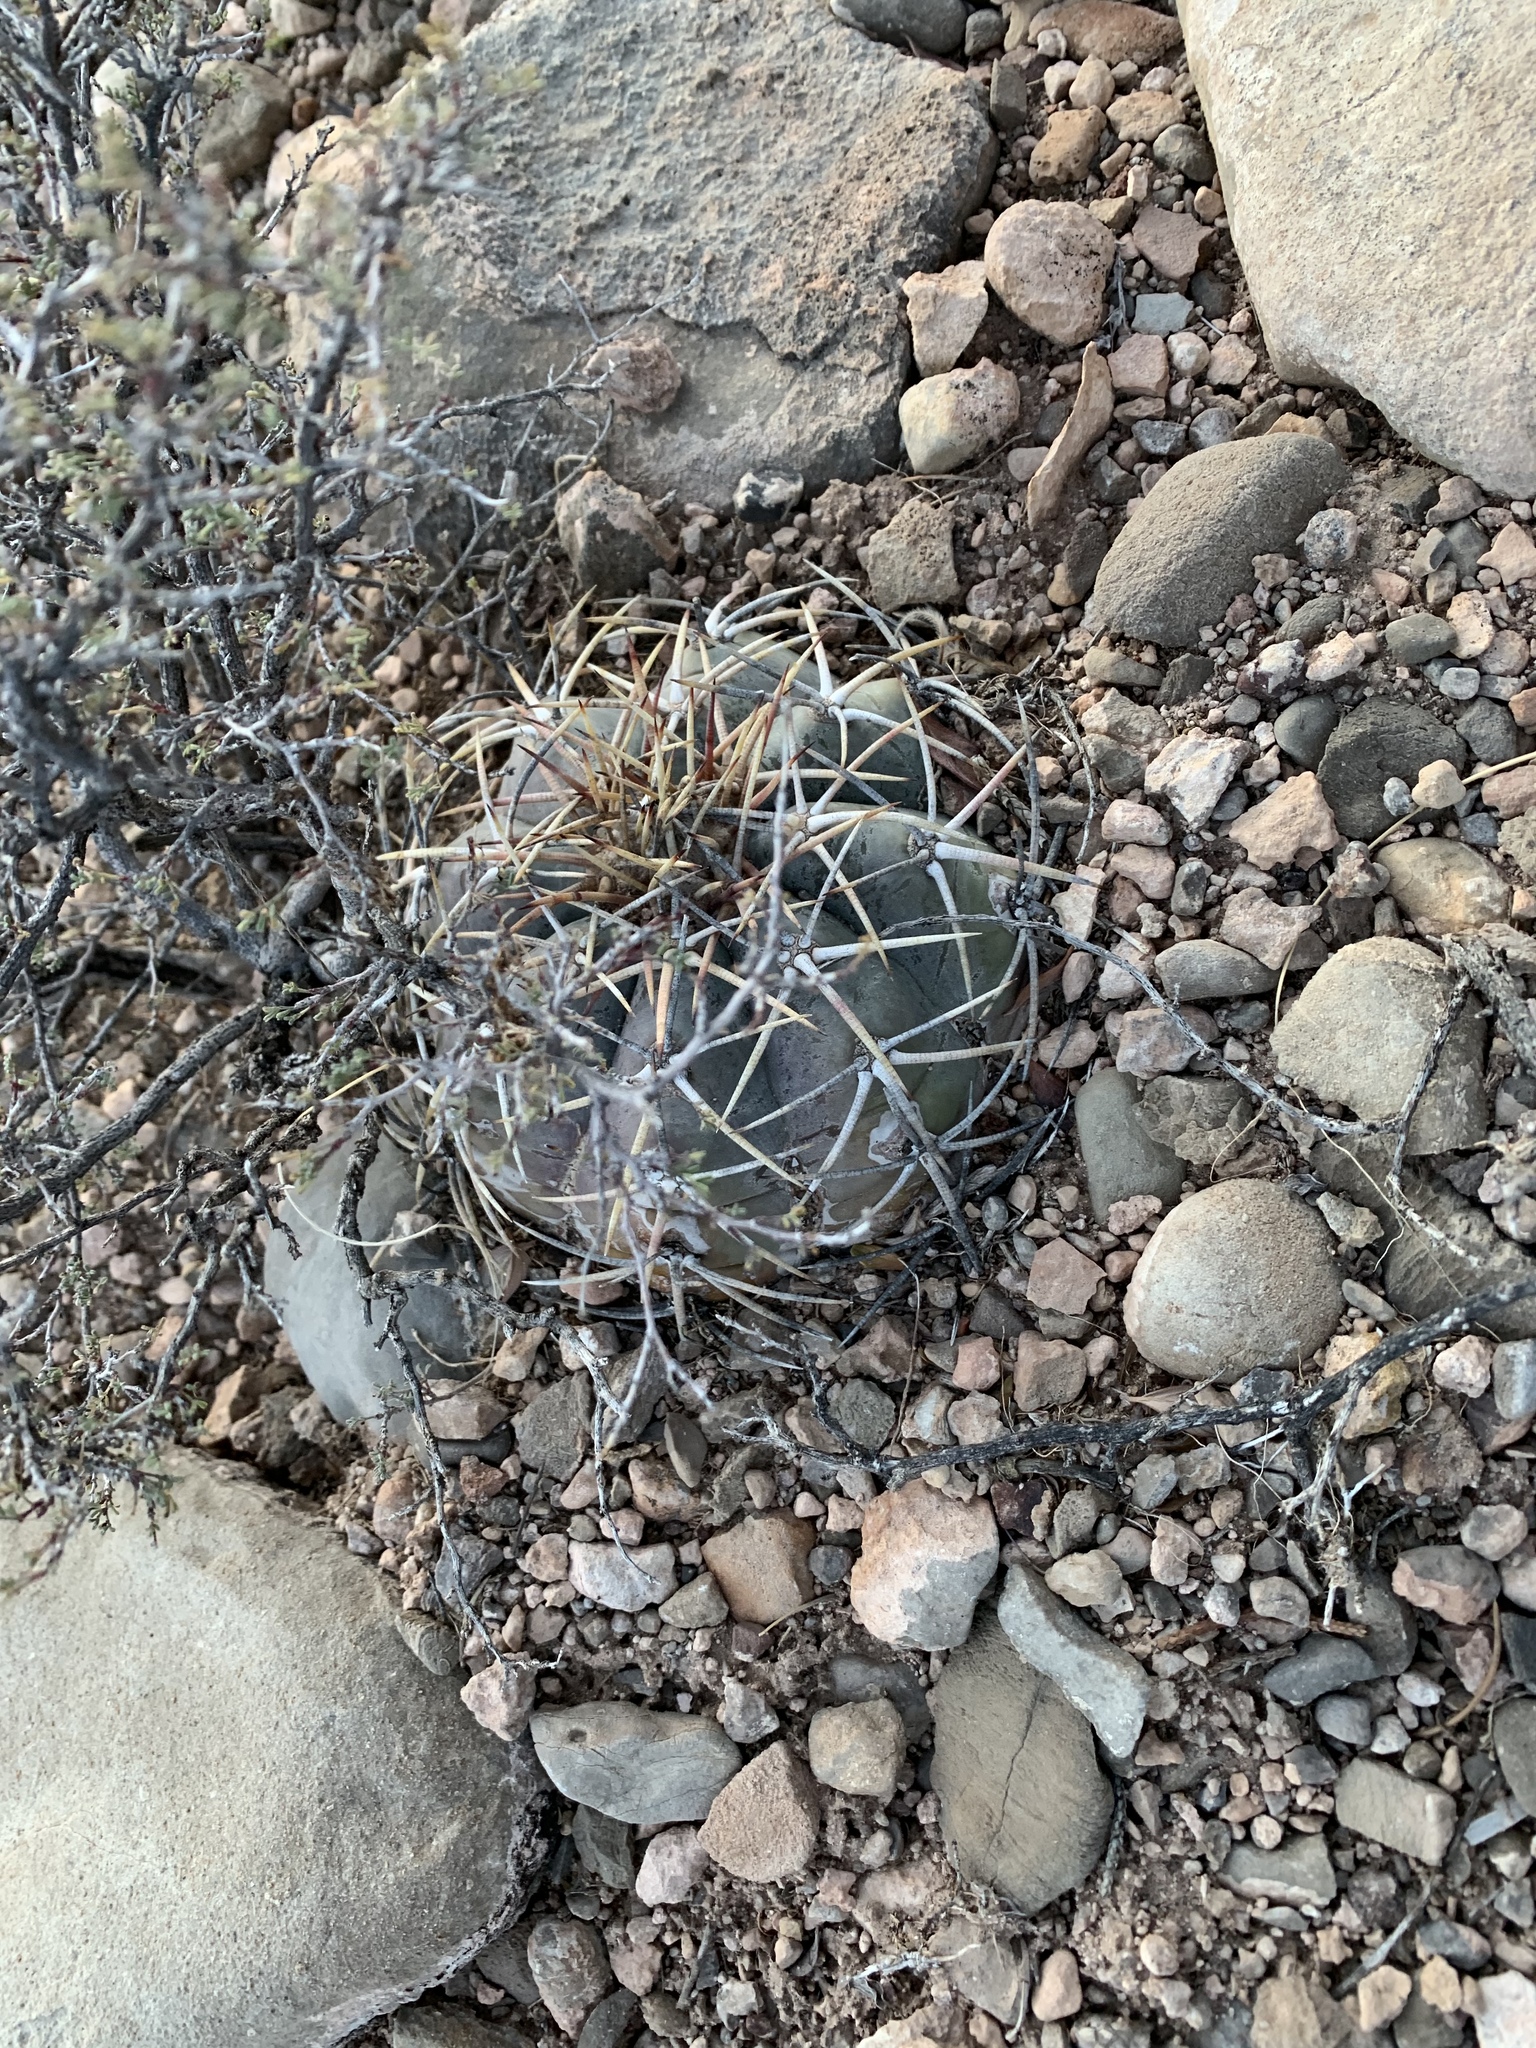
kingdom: Plantae
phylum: Tracheophyta
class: Magnoliopsida
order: Caryophyllales
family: Cactaceae
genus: Echinocactus
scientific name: Echinocactus horizonthalonius
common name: Devilshead
